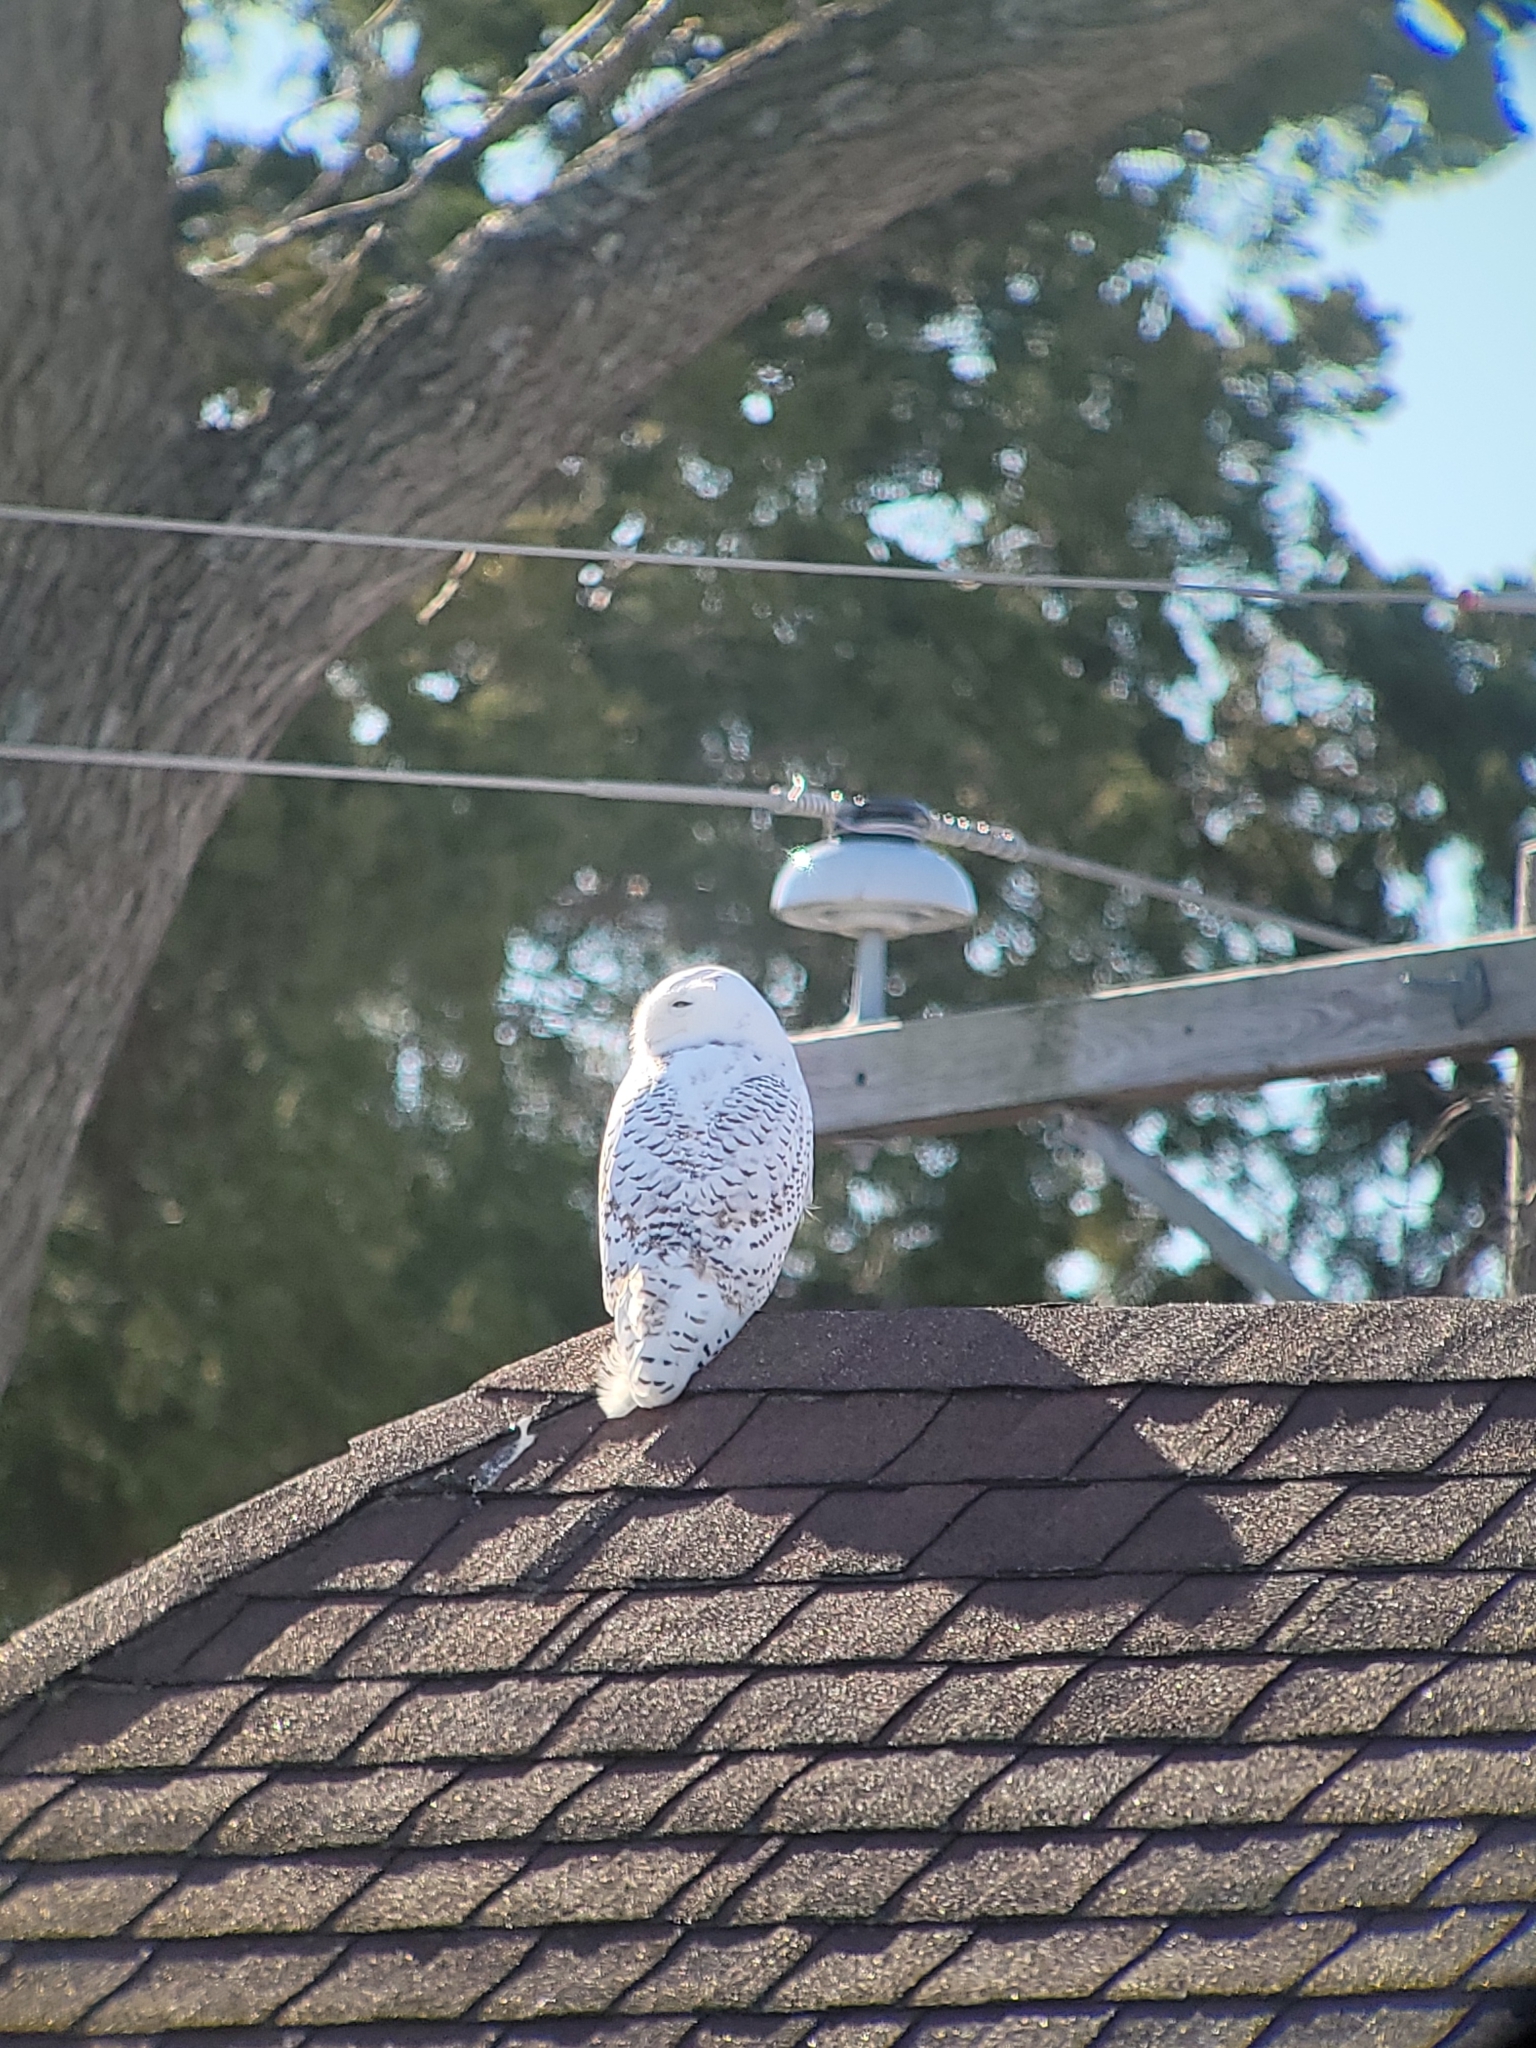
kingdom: Animalia
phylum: Chordata
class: Aves
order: Strigiformes
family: Strigidae
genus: Bubo
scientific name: Bubo scandiacus
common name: Snowy owl
